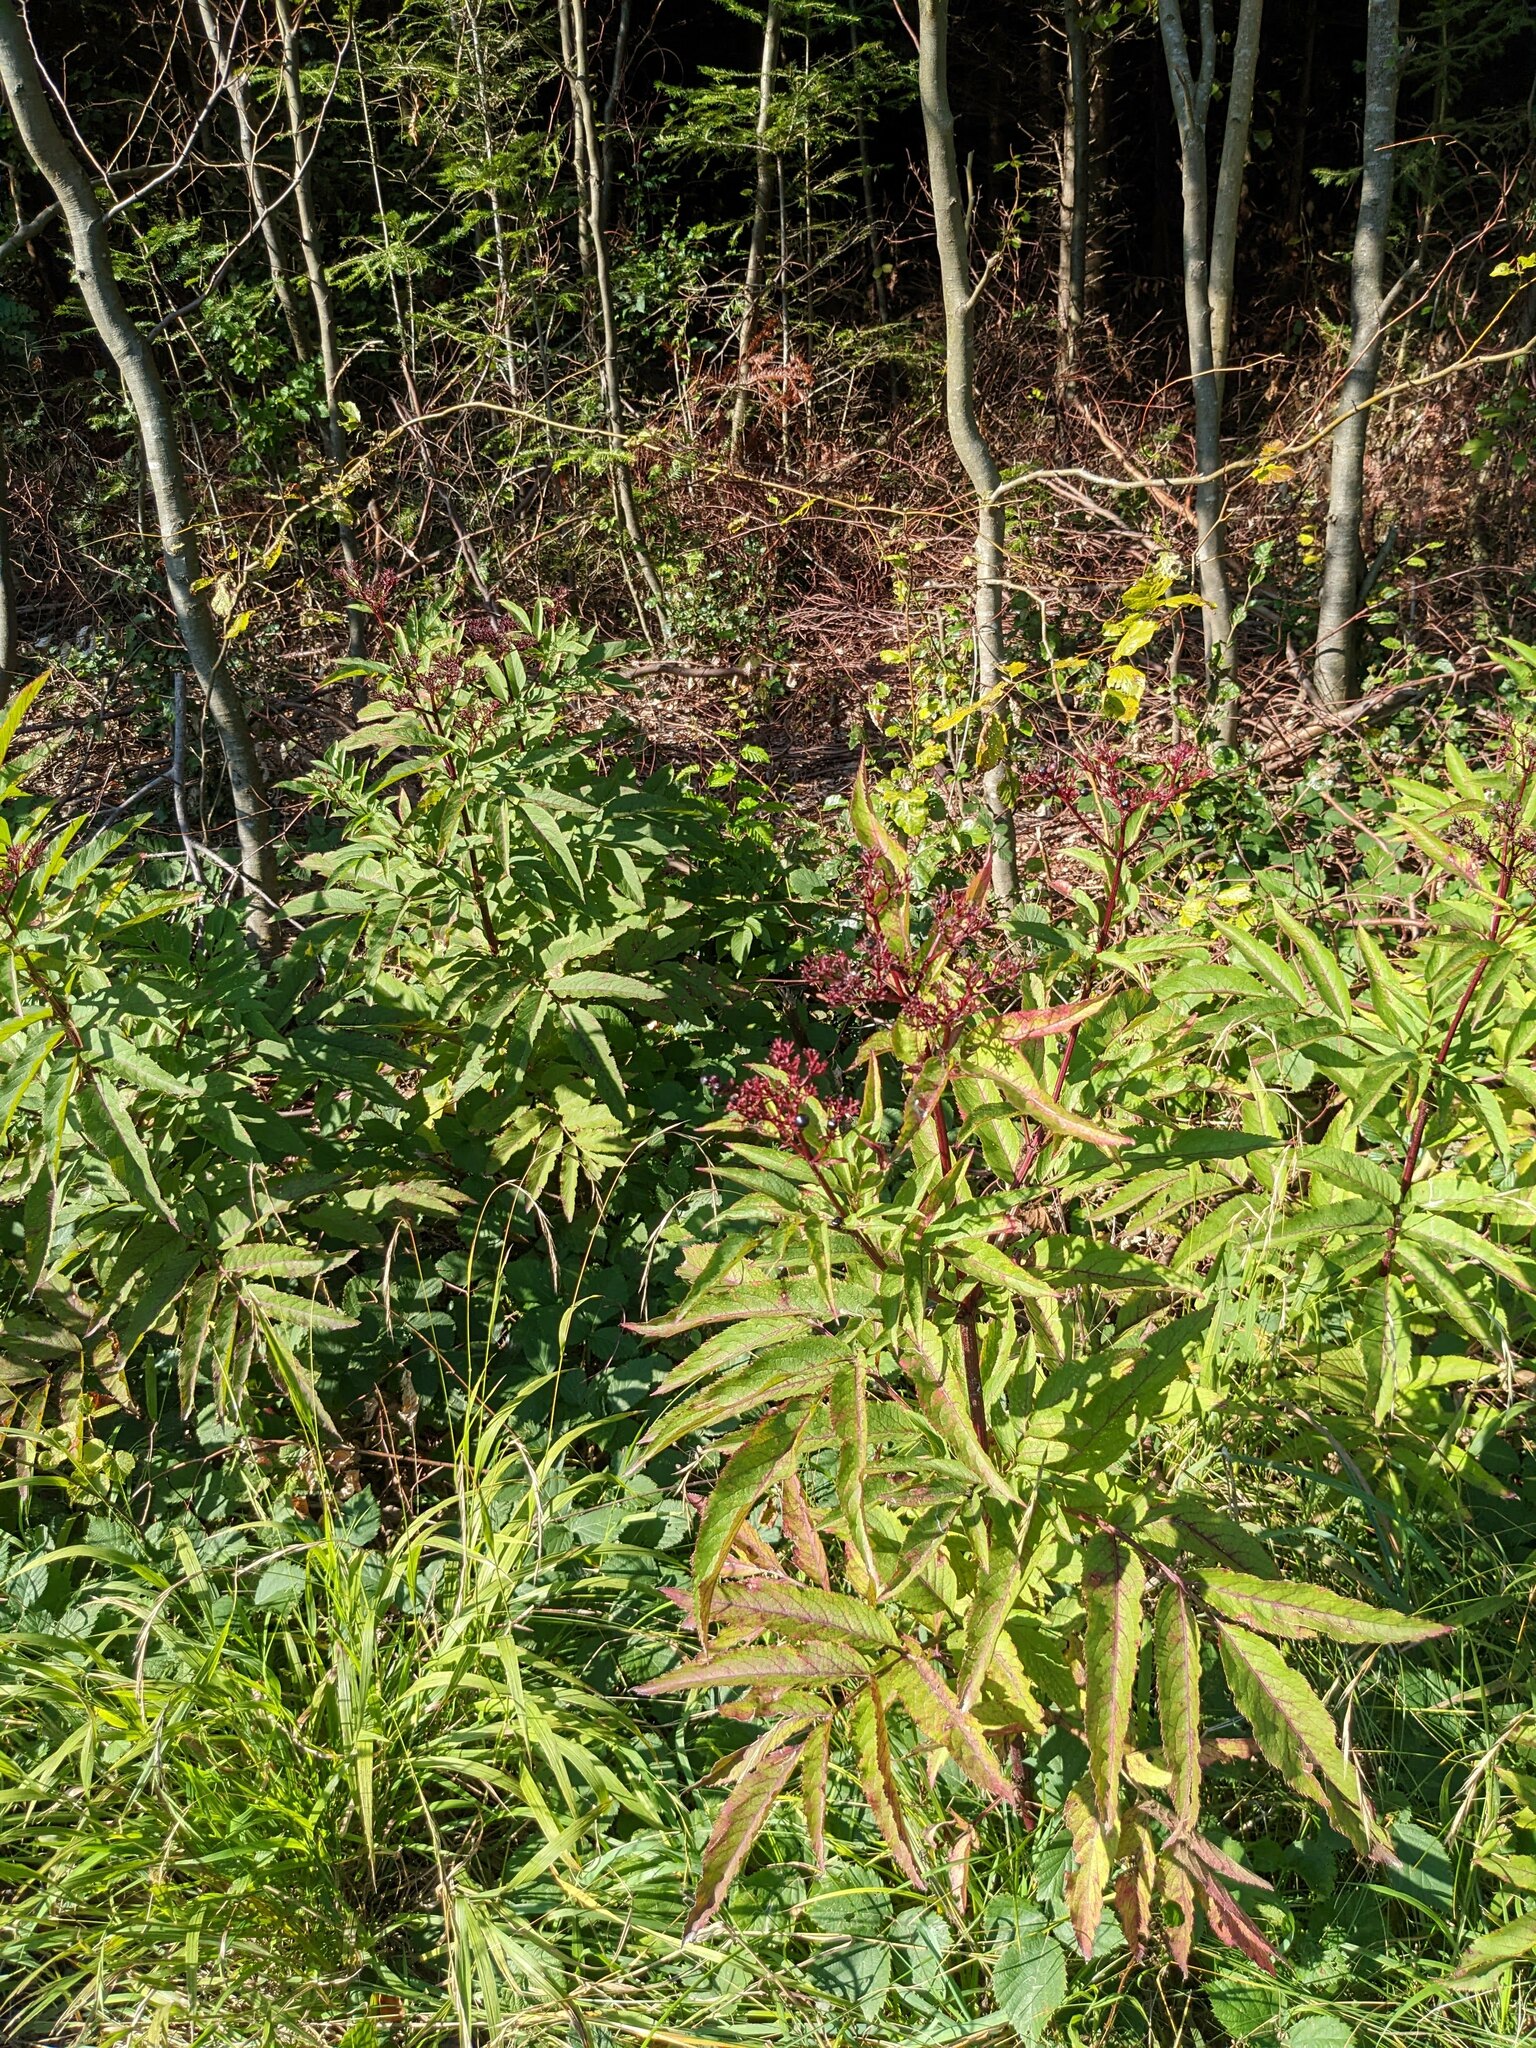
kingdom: Plantae
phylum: Tracheophyta
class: Magnoliopsida
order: Dipsacales
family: Viburnaceae
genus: Sambucus
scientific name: Sambucus ebulus
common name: Dwarf elder
